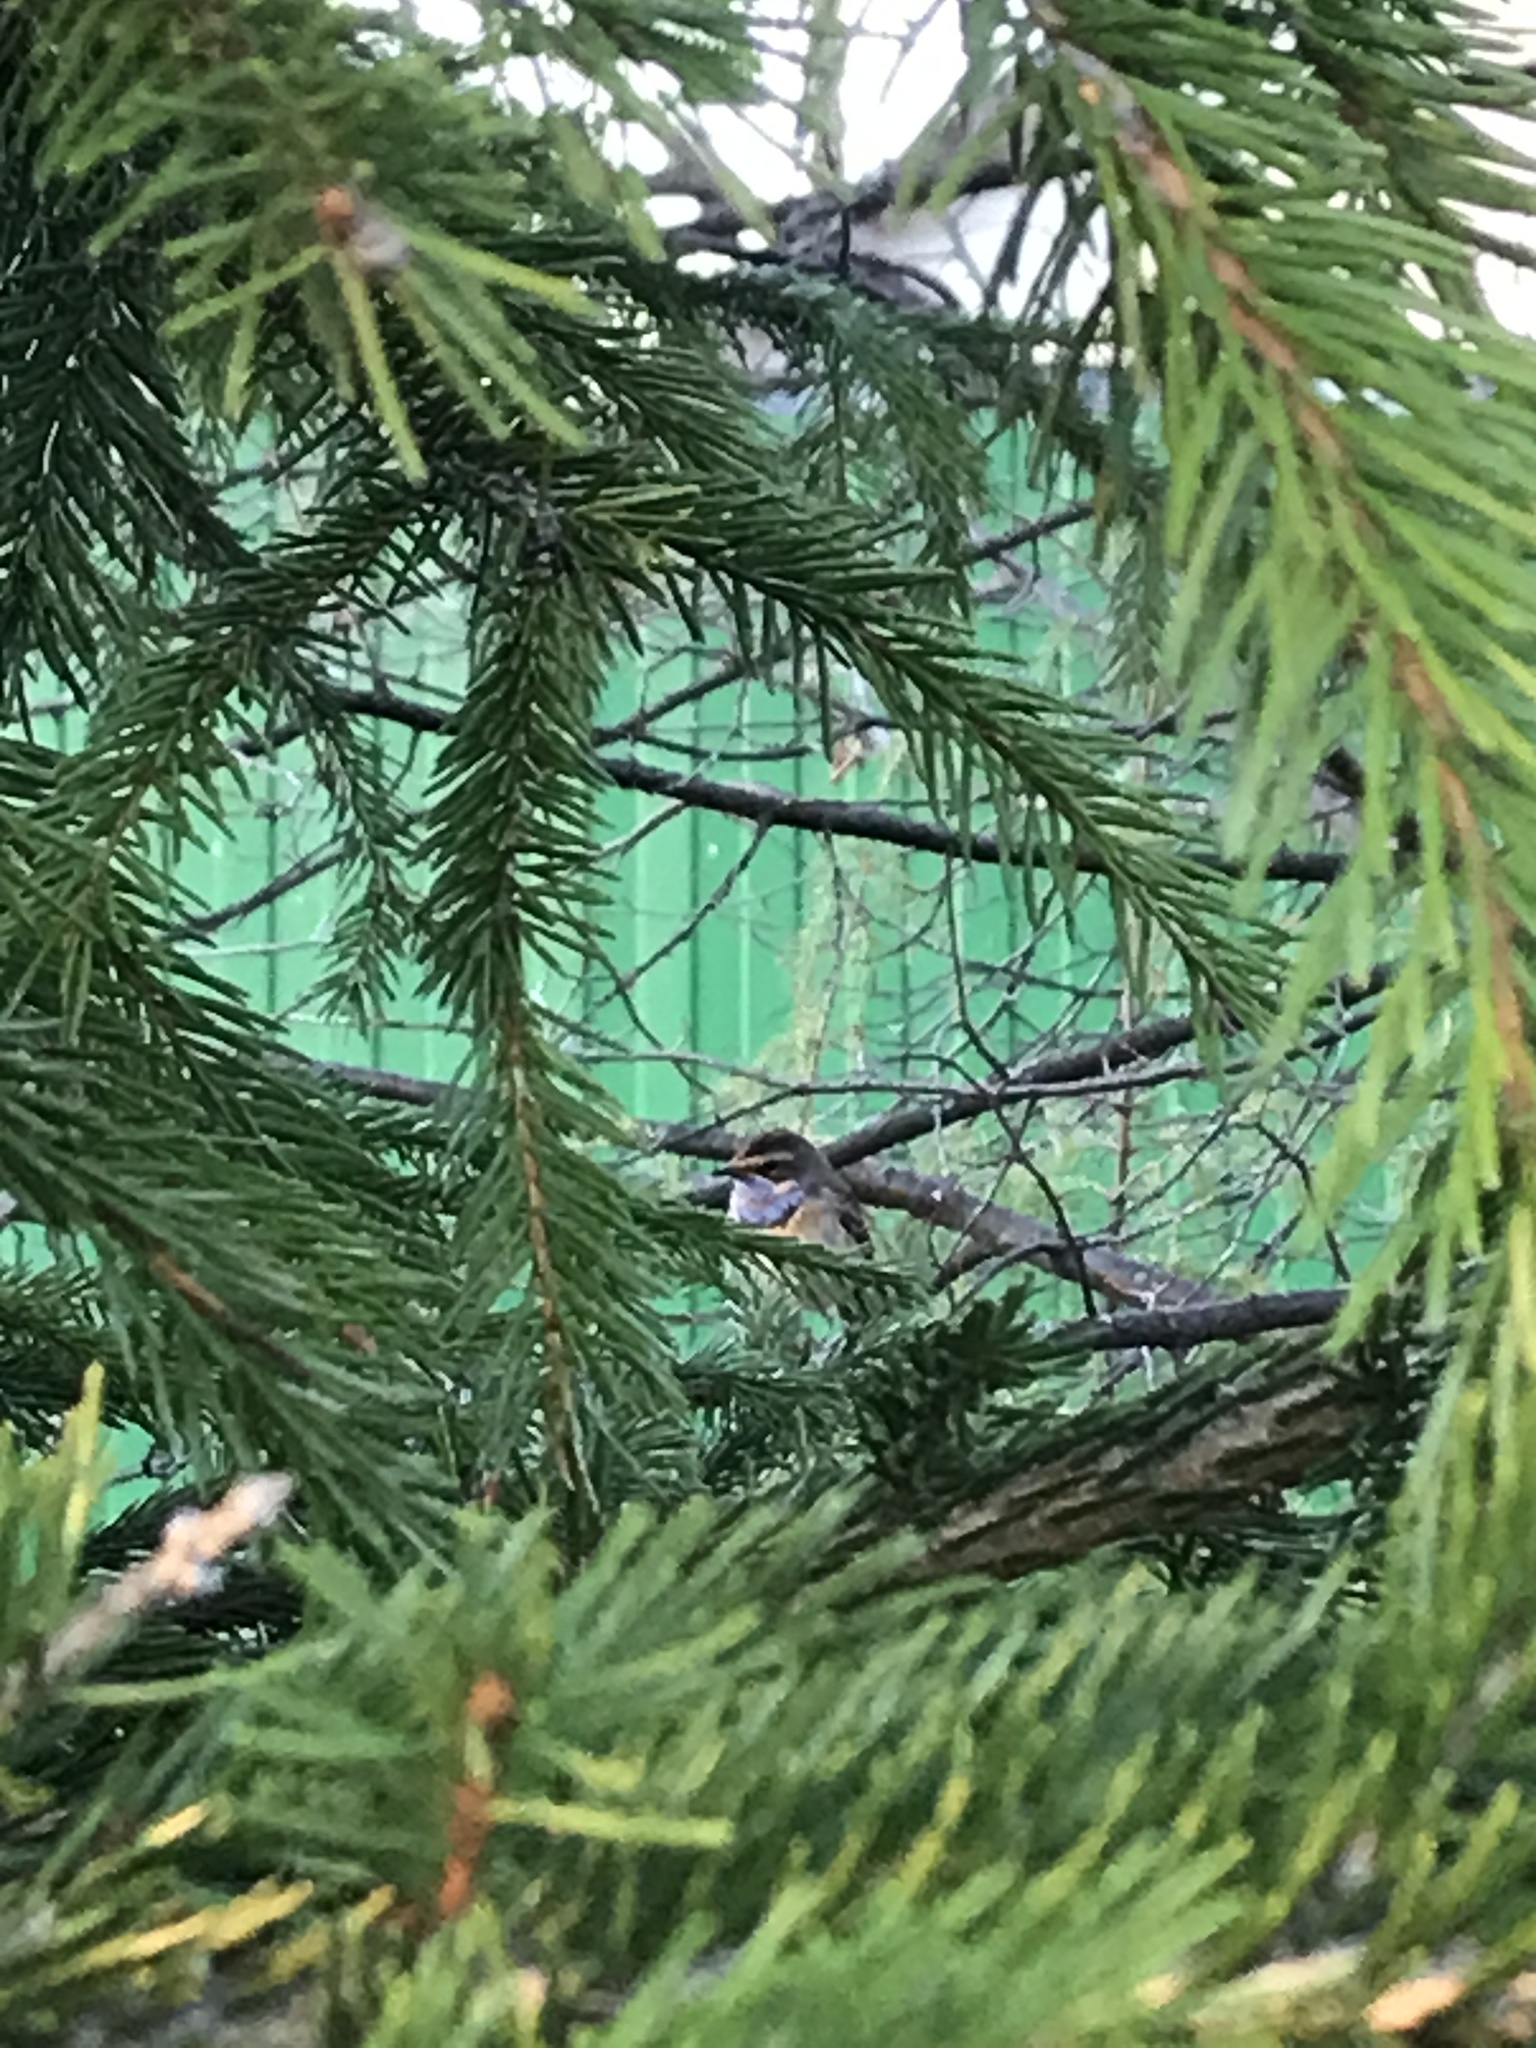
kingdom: Animalia
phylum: Chordata
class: Aves
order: Passeriformes
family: Muscicapidae
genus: Luscinia
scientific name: Luscinia svecica
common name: Bluethroat
